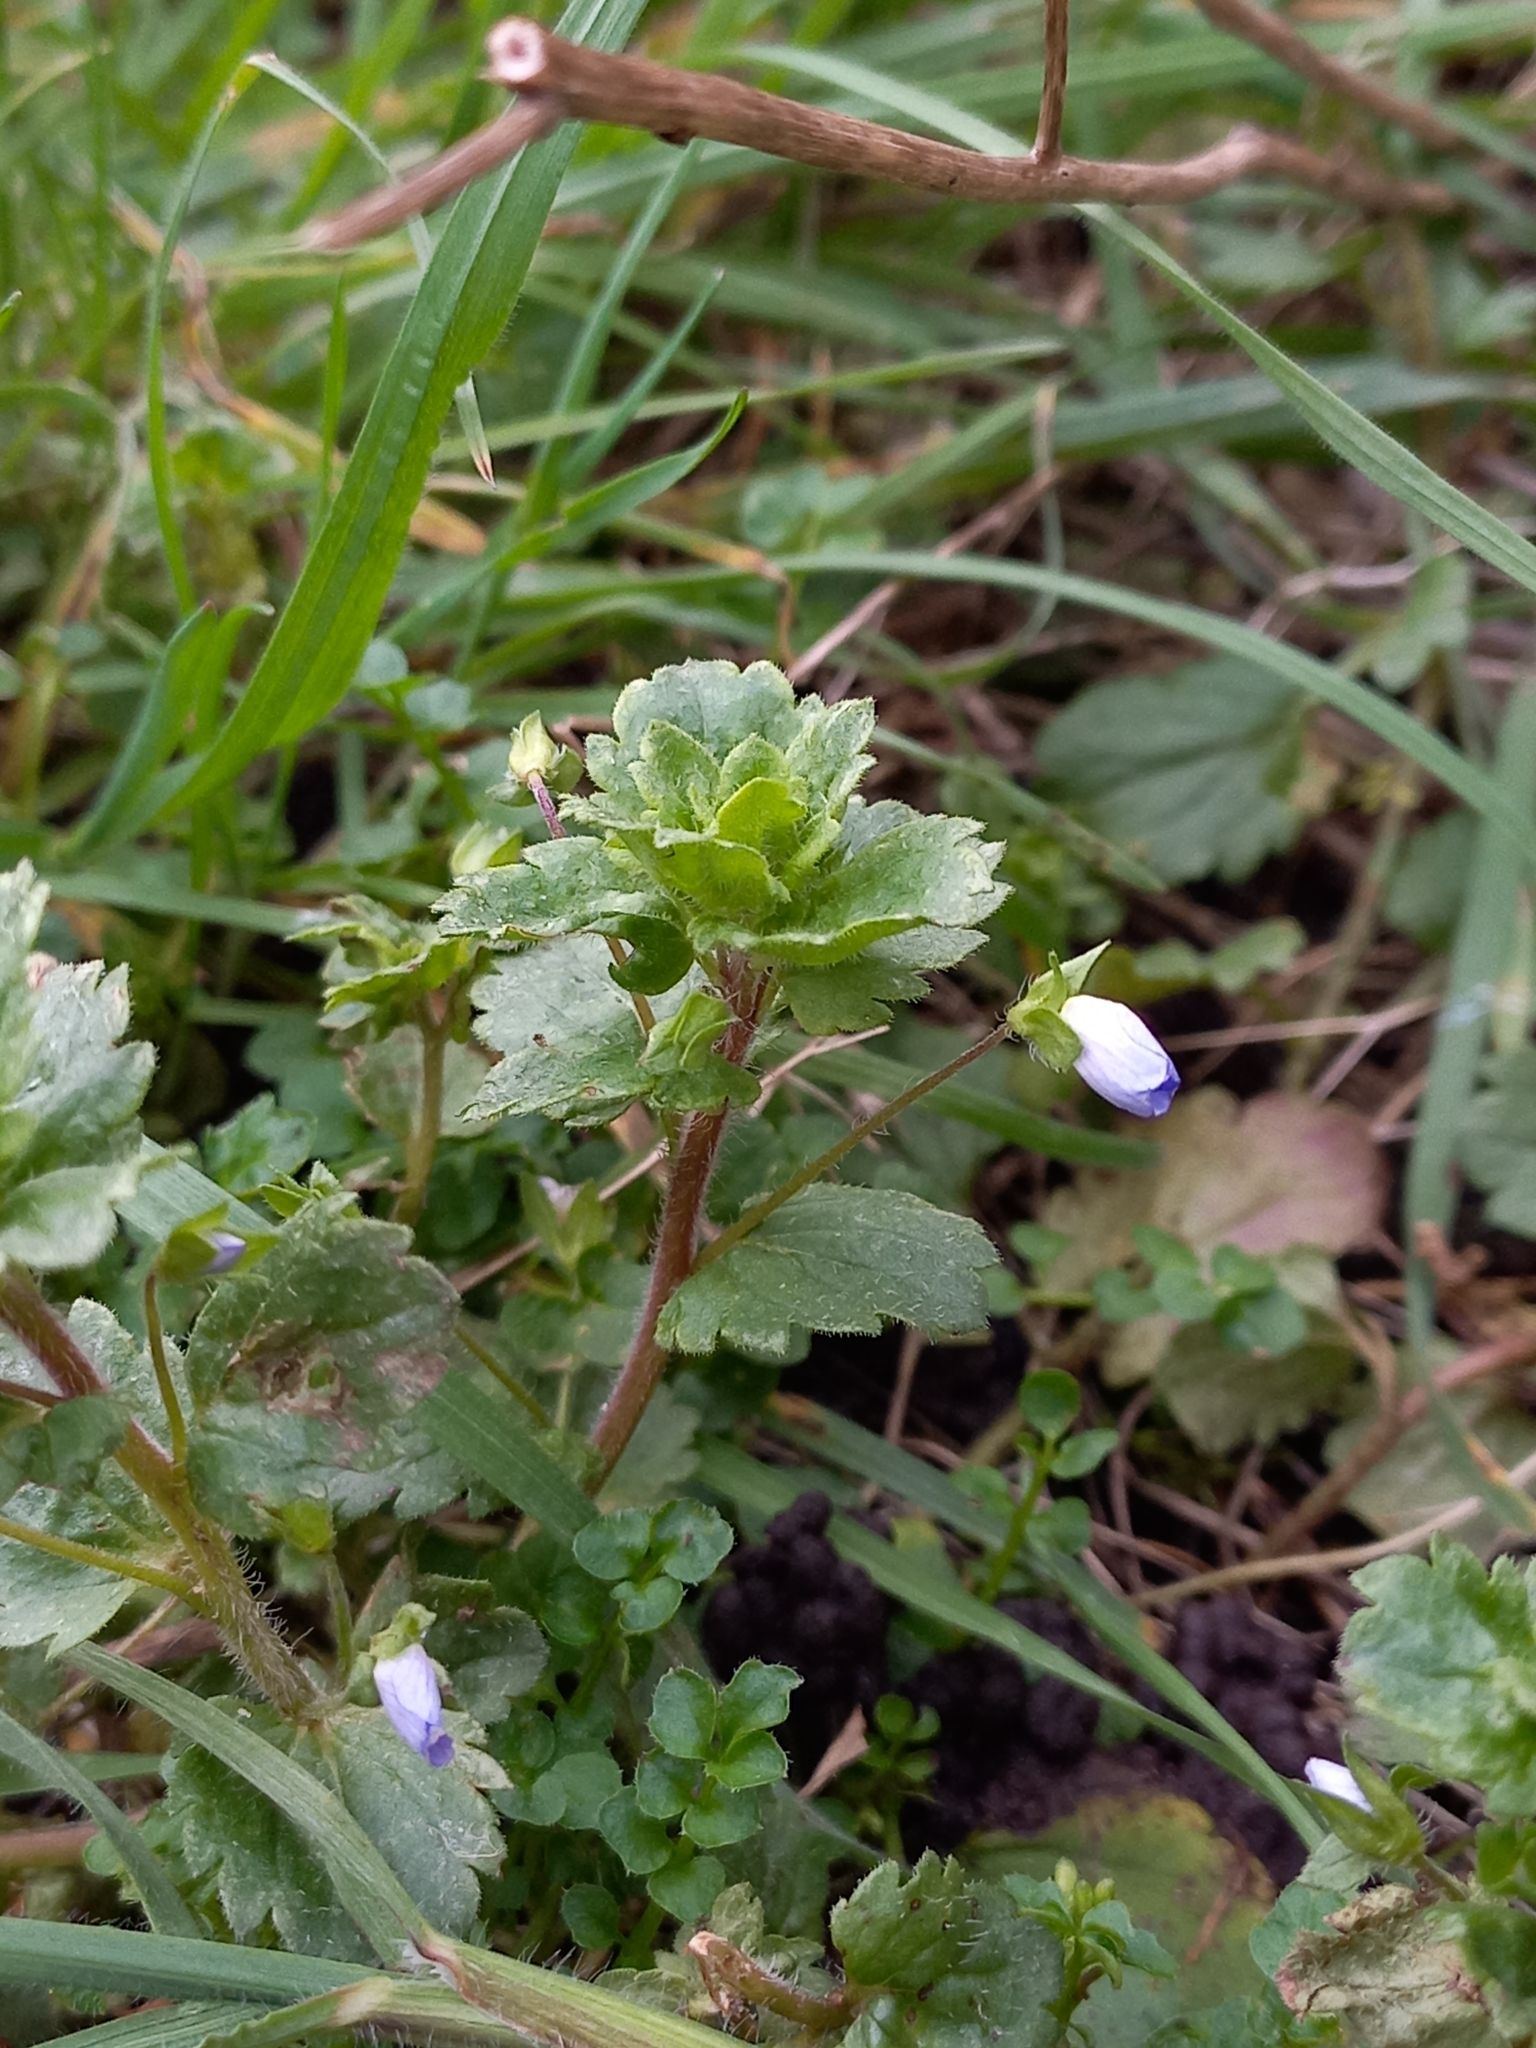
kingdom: Plantae
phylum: Tracheophyta
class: Magnoliopsida
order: Lamiales
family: Plantaginaceae
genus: Veronica
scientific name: Veronica persica
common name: Common field-speedwell
